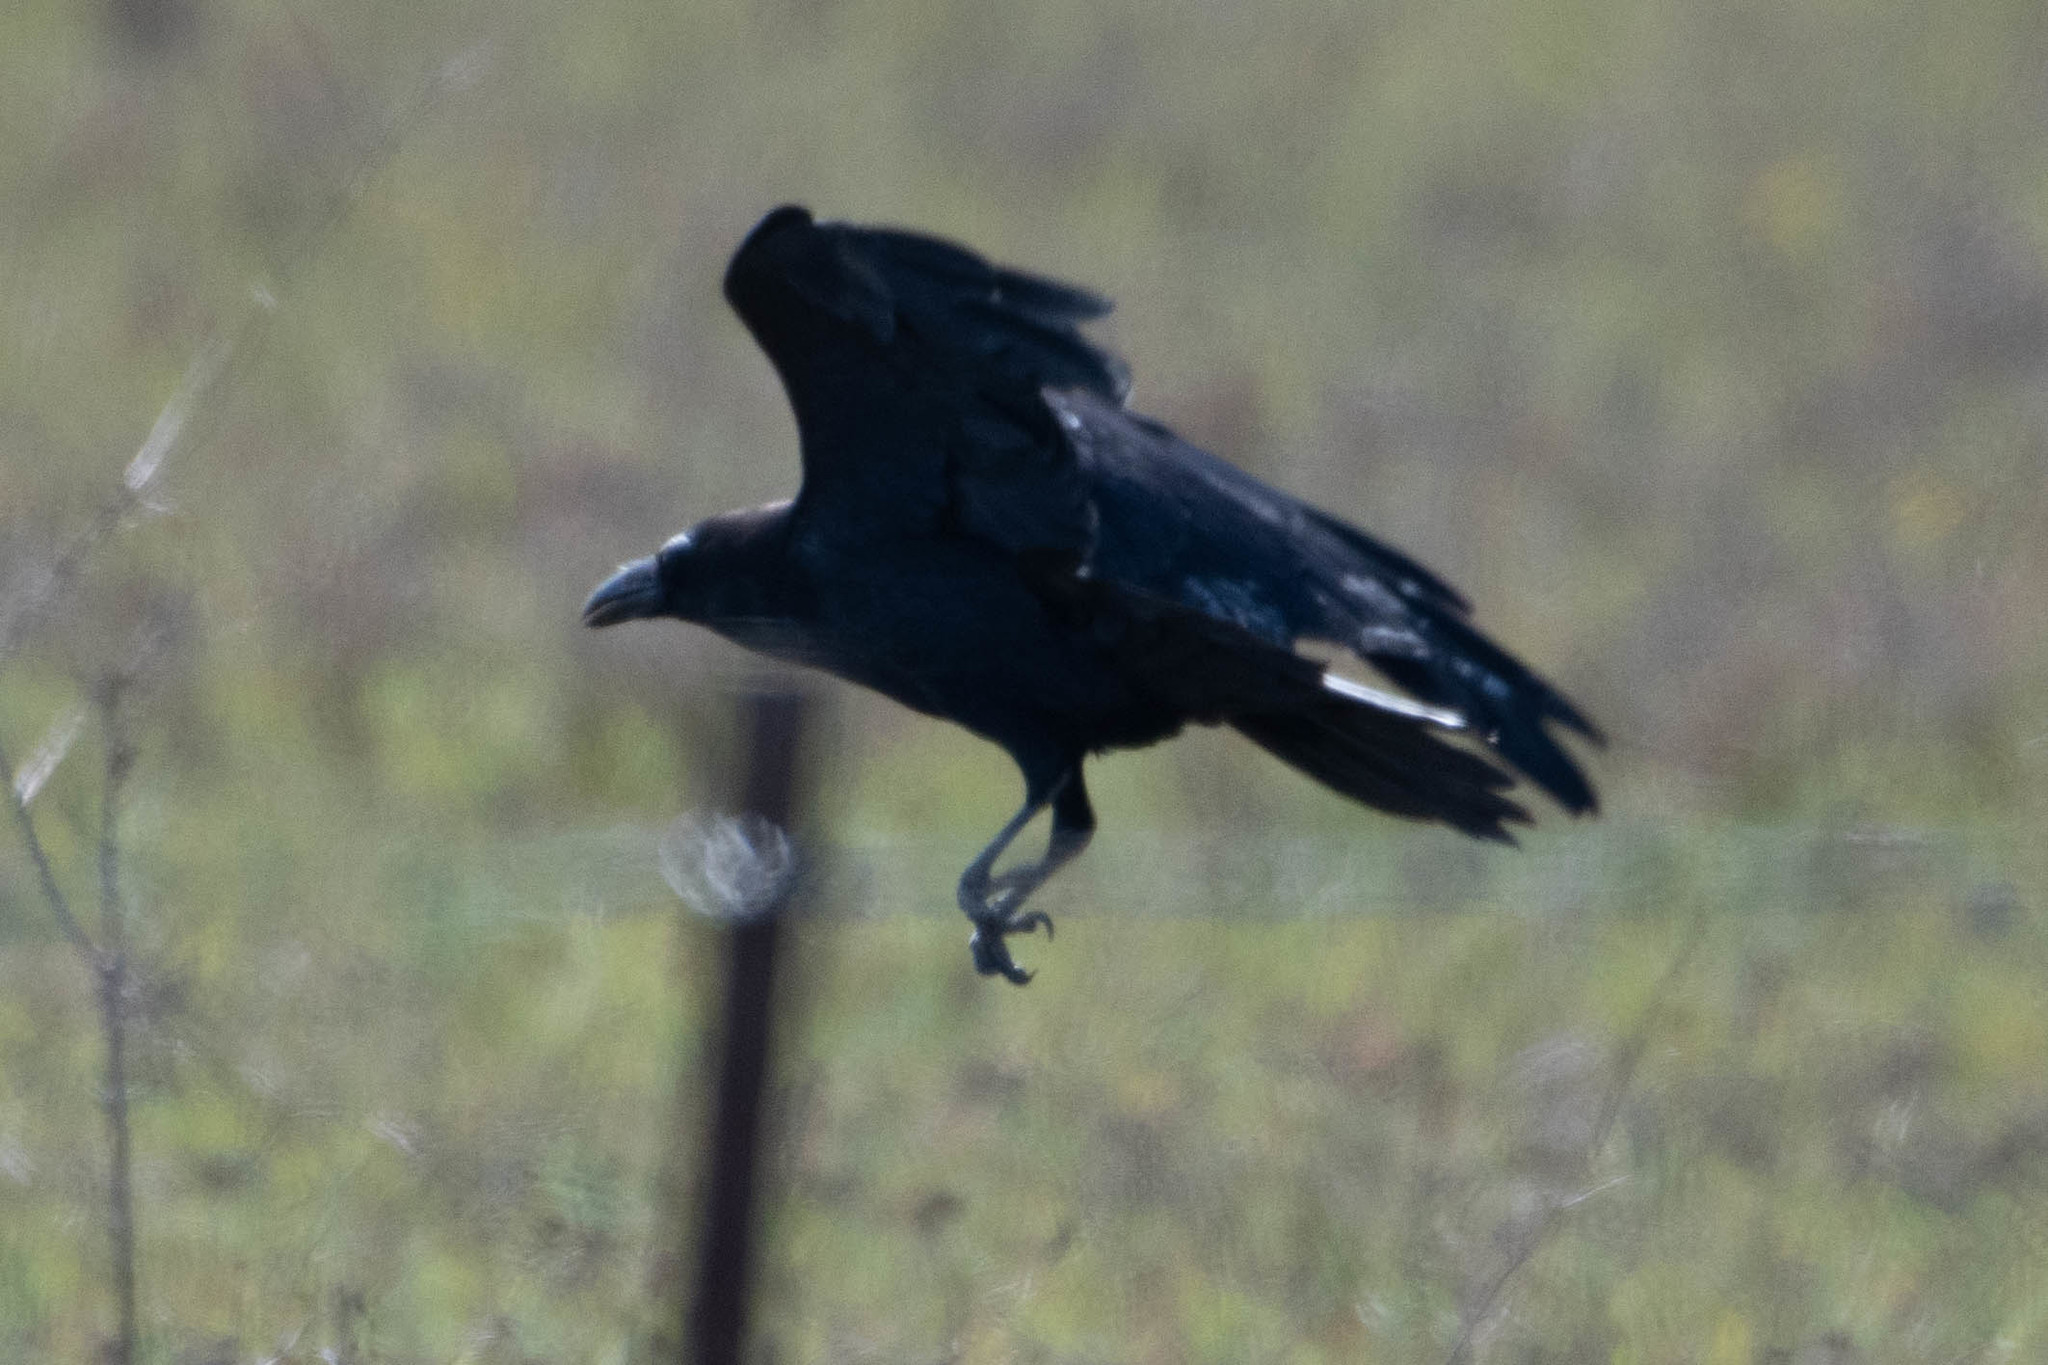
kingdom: Animalia
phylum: Chordata
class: Aves
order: Passeriformes
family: Corvidae
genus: Corvus
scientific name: Corvus corax
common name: Common raven
